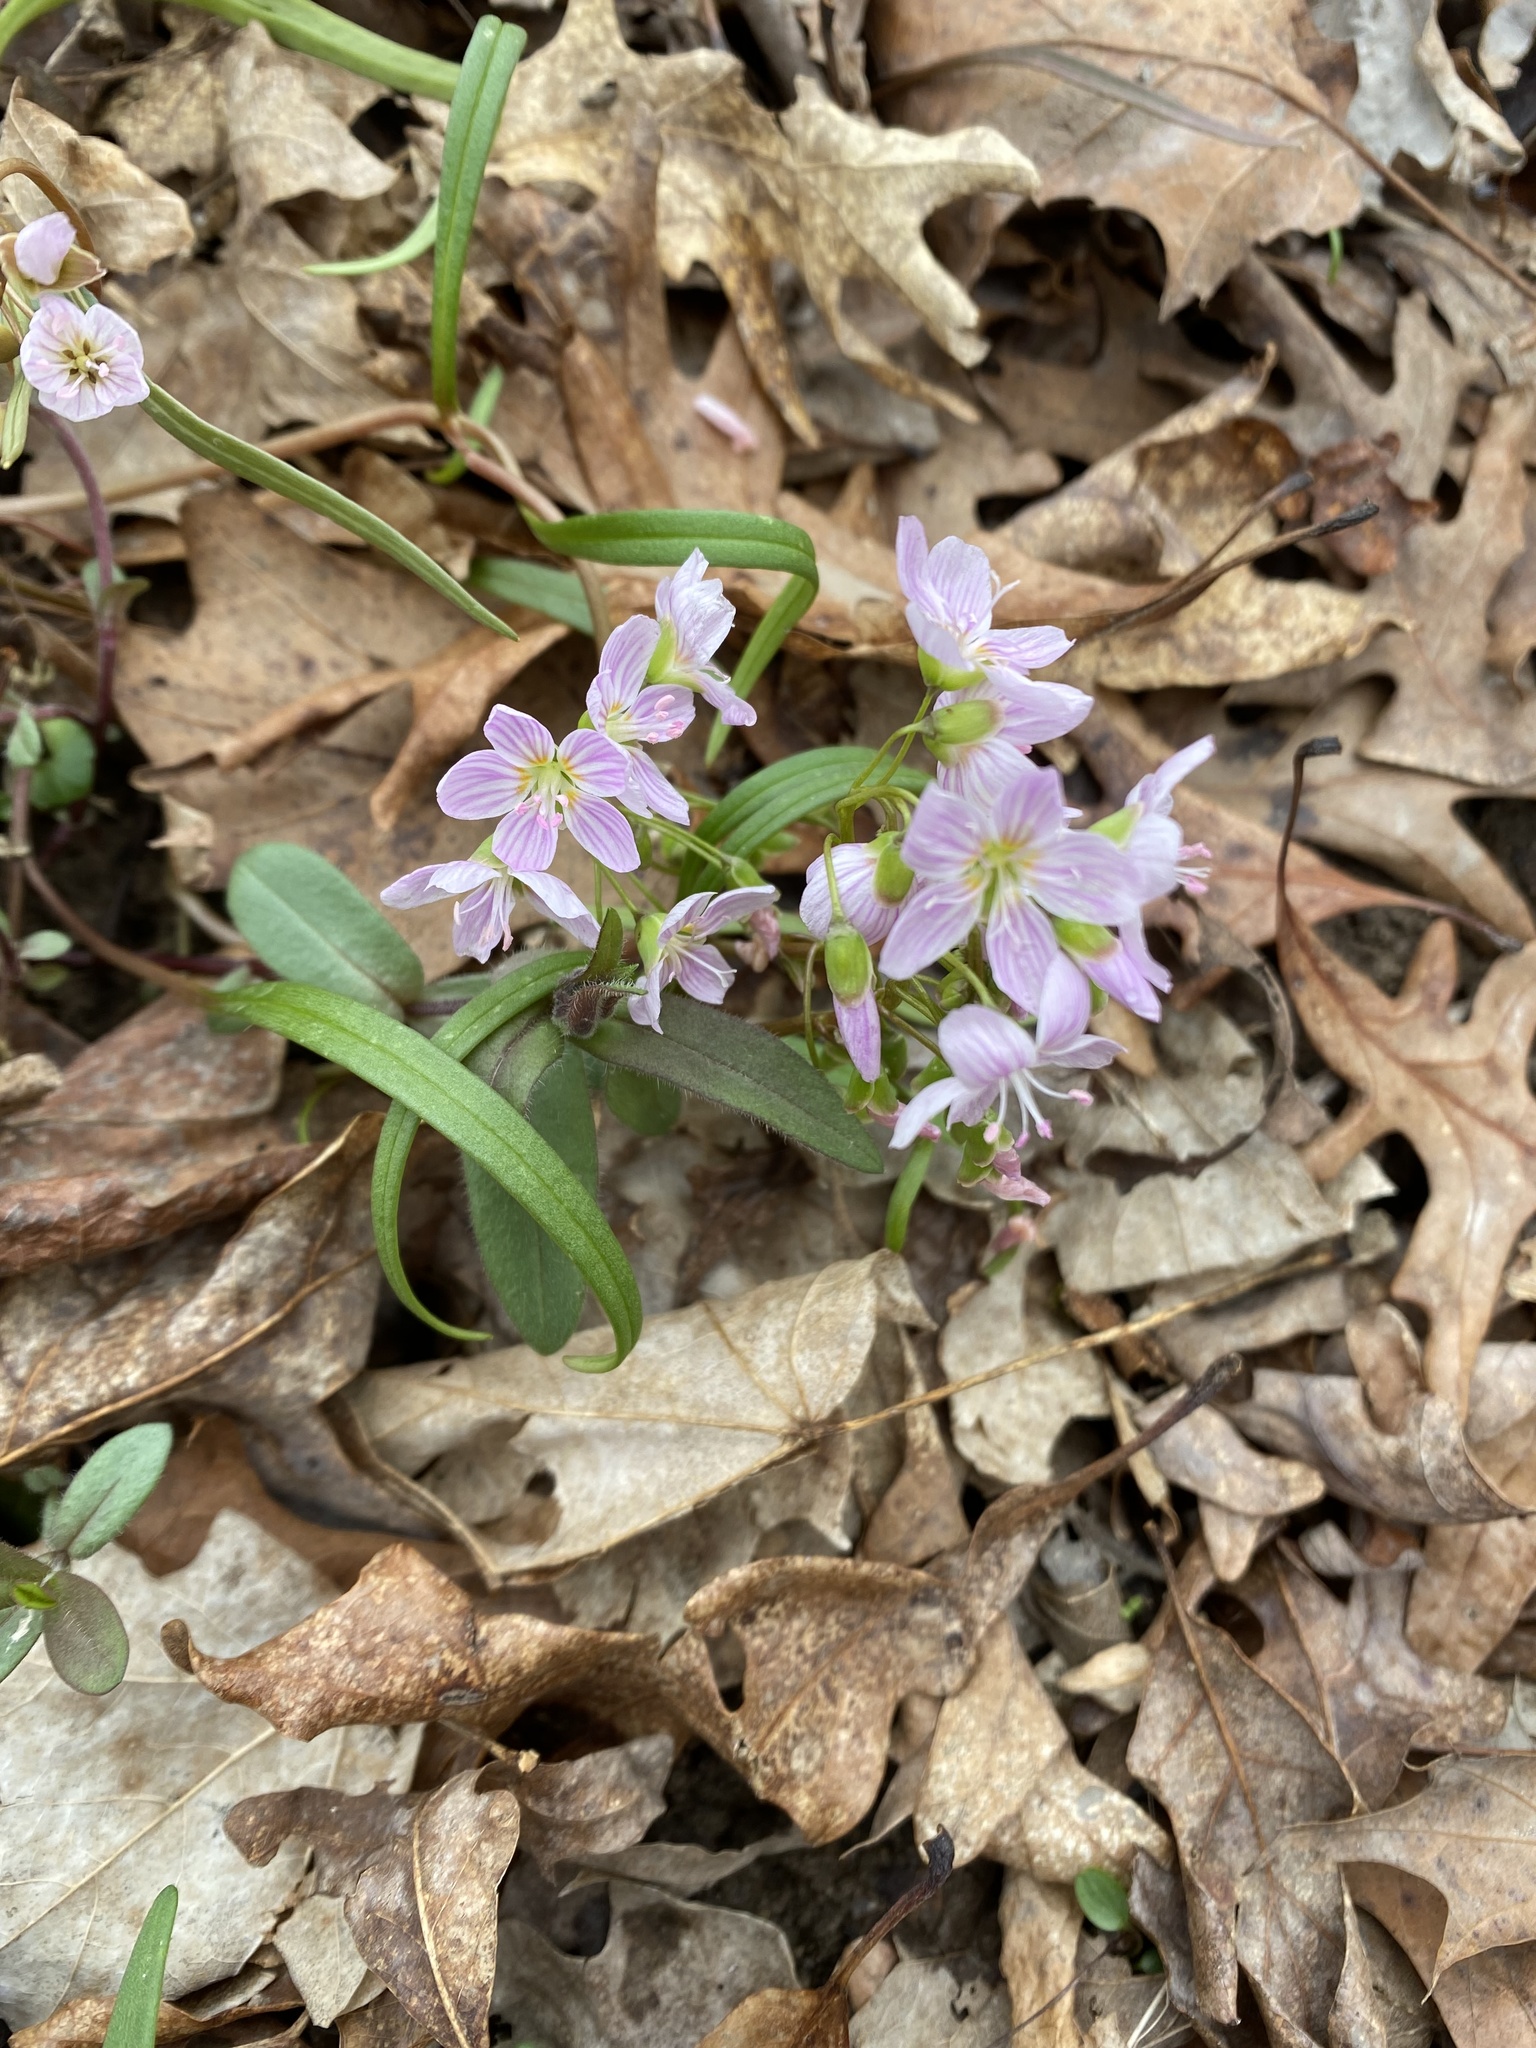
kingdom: Plantae
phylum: Tracheophyta
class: Magnoliopsida
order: Caryophyllales
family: Montiaceae
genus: Claytonia
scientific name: Claytonia virginica
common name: Virginia springbeauty
